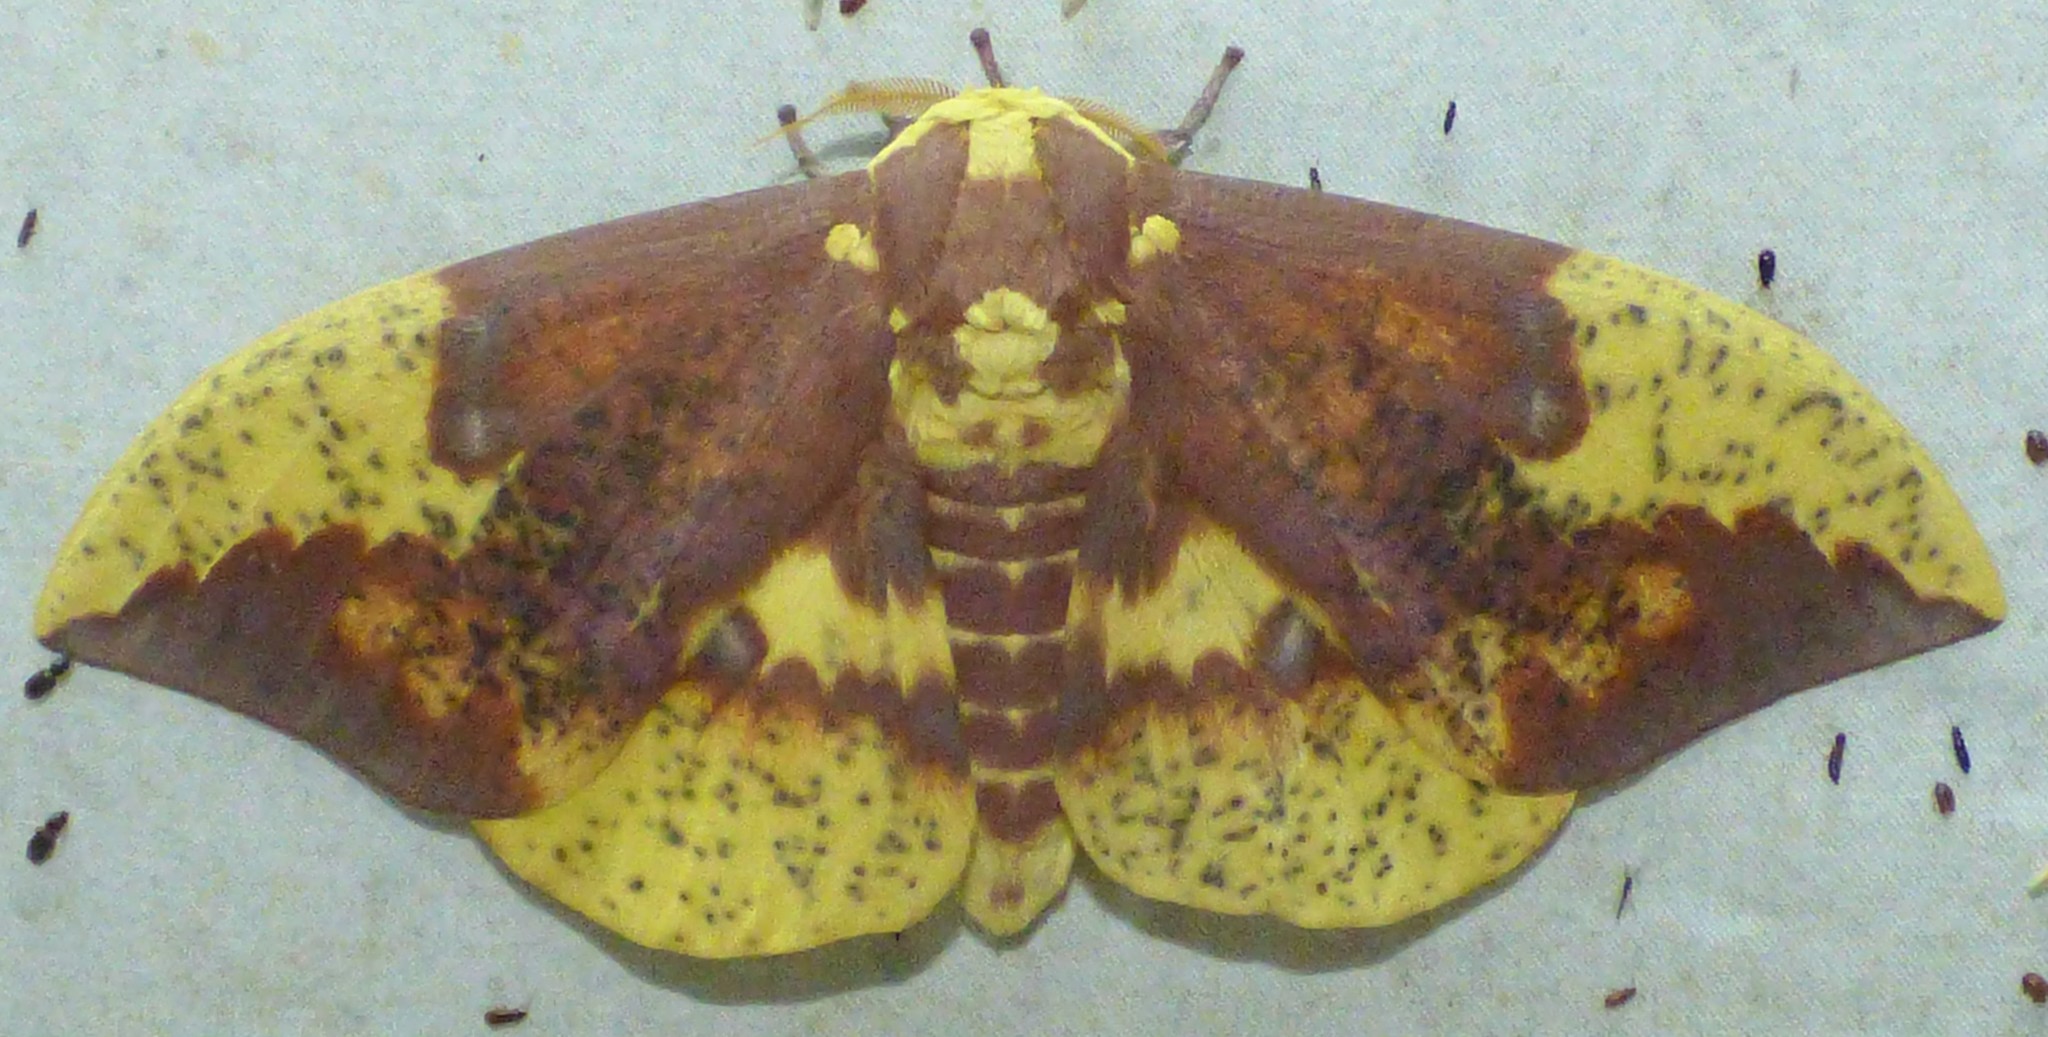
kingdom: Animalia
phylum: Arthropoda
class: Insecta
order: Lepidoptera
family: Saturniidae
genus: Eacles
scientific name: Eacles imperialis
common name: Imperial moth
